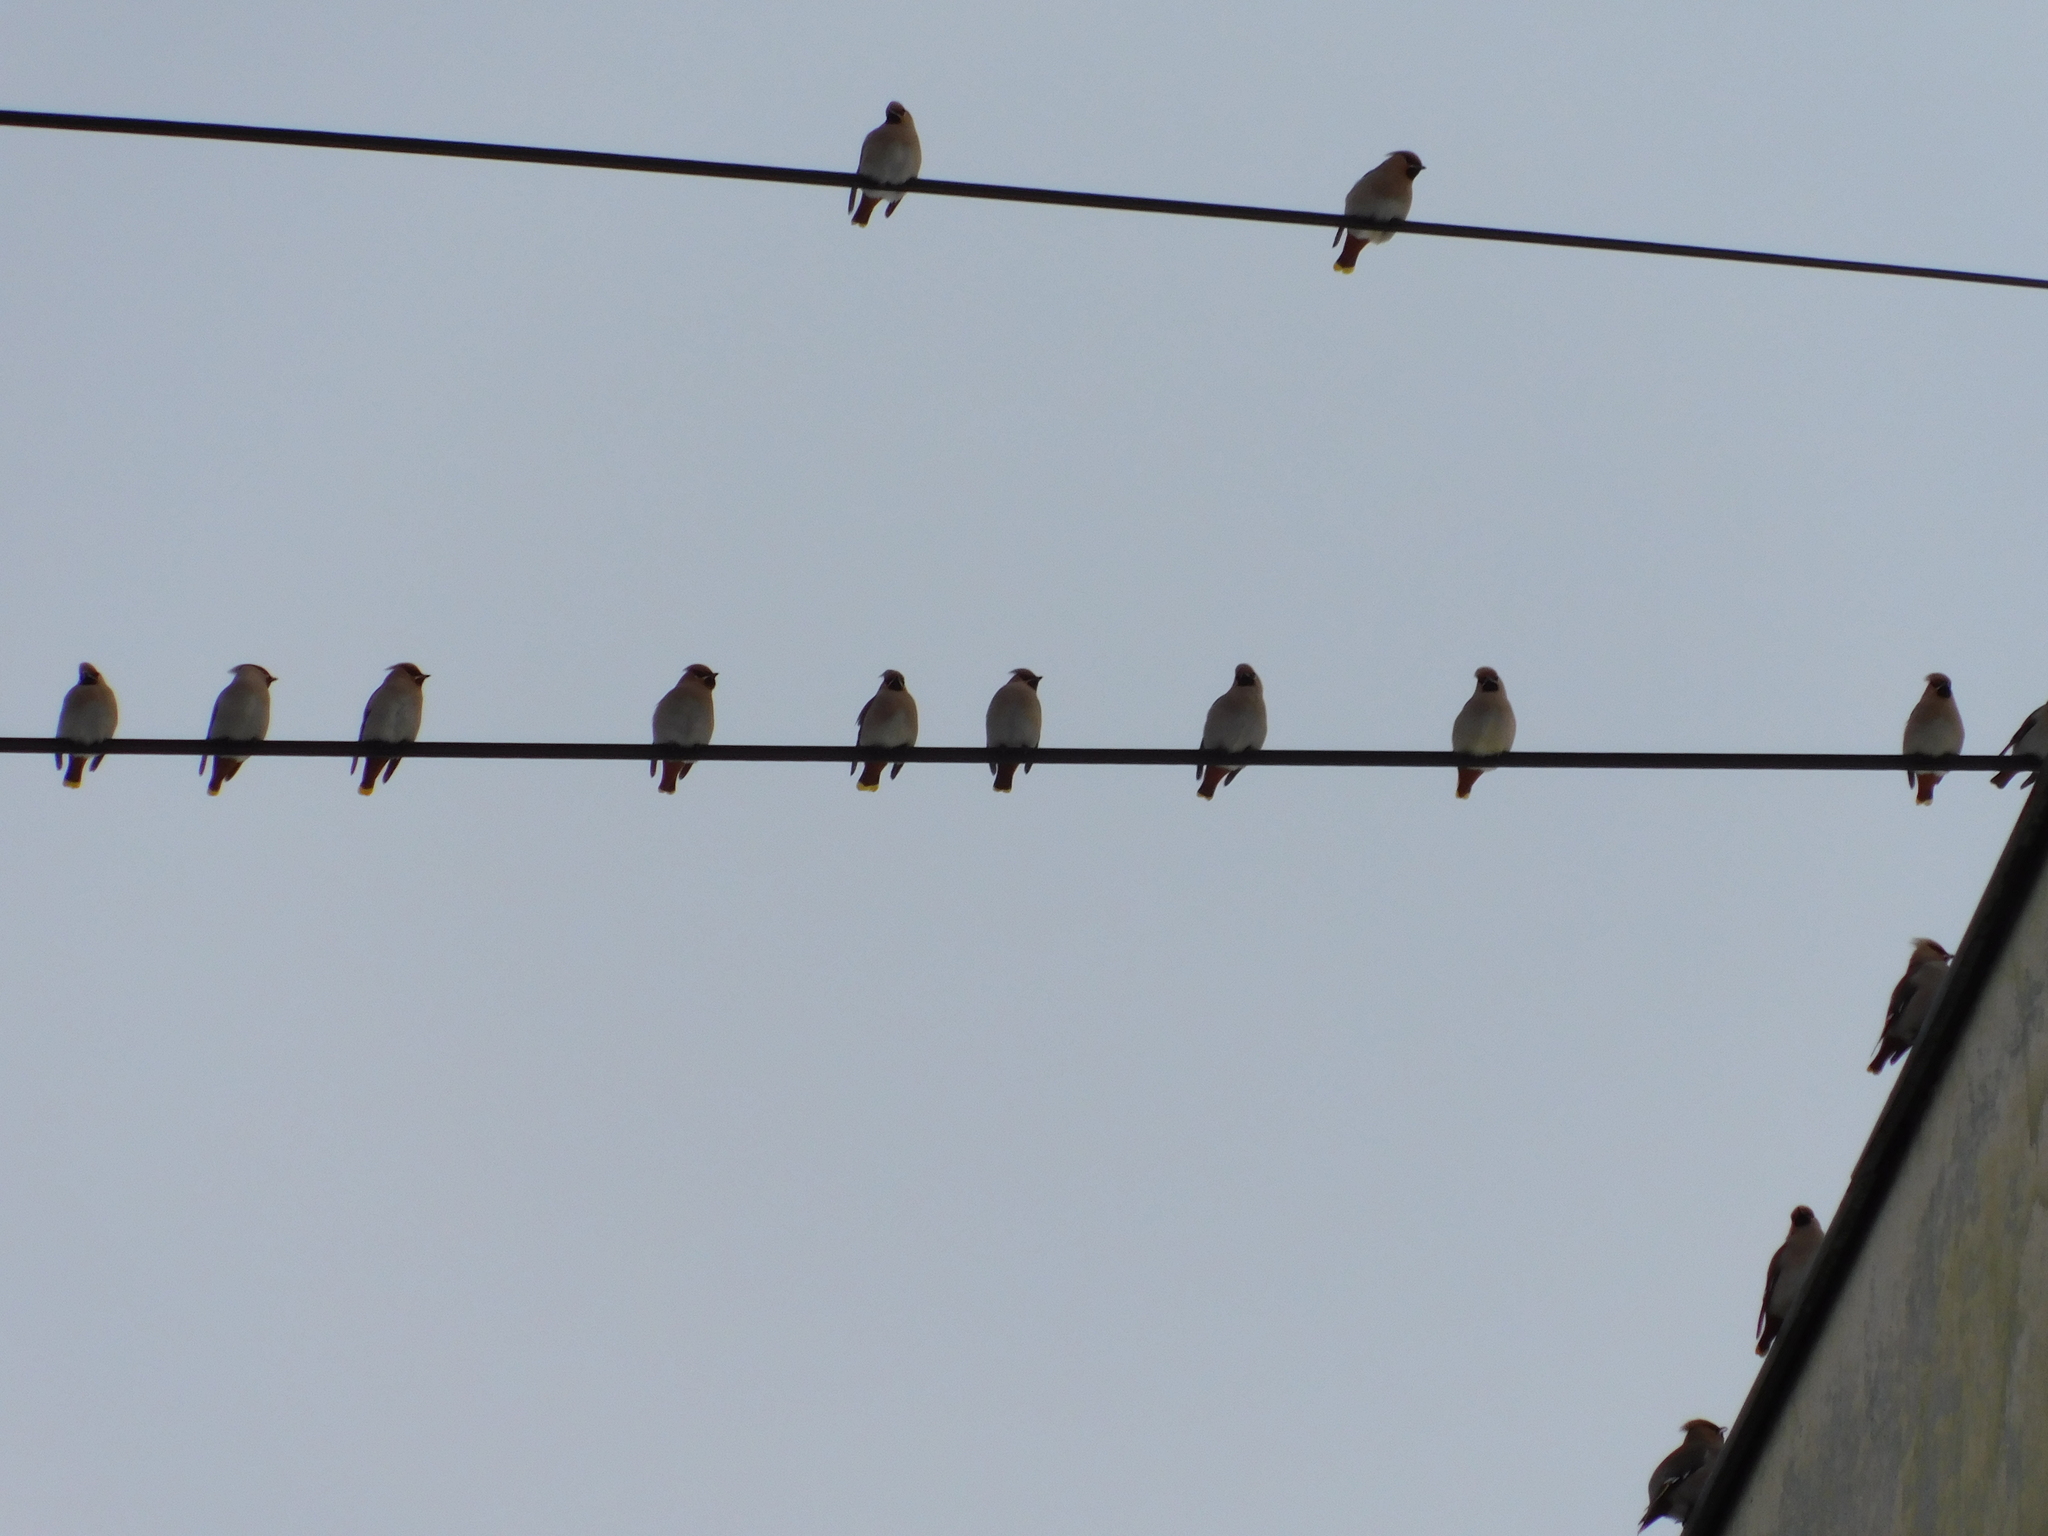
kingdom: Animalia
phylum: Chordata
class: Aves
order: Passeriformes
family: Bombycillidae
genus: Bombycilla
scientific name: Bombycilla garrulus
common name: Bohemian waxwing
